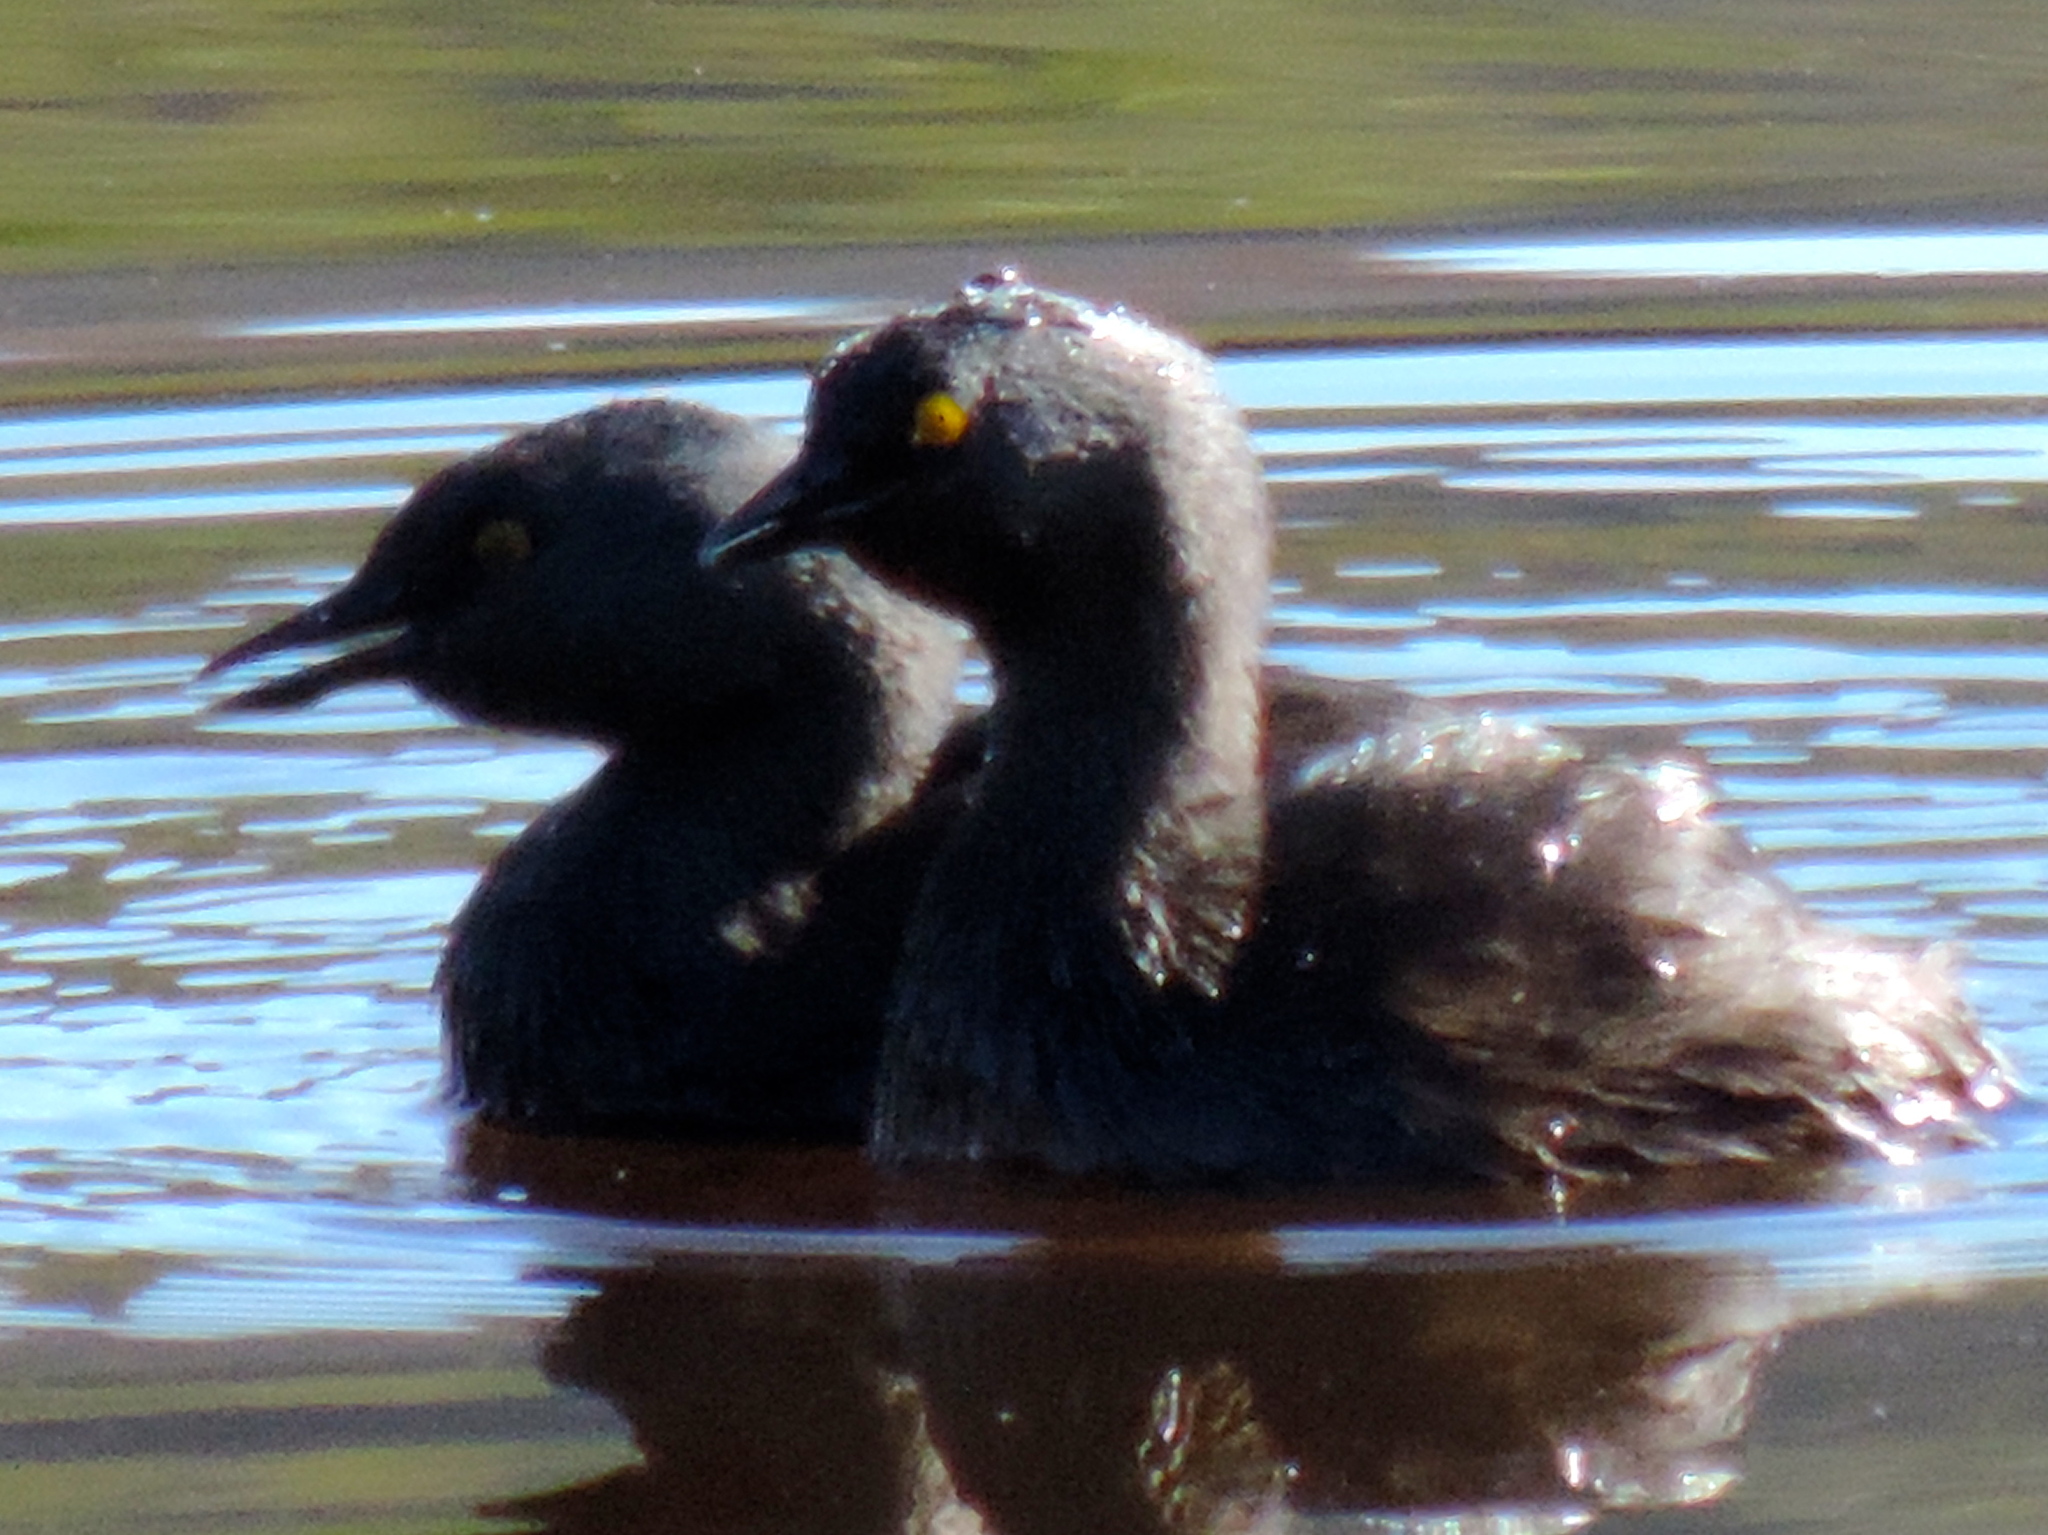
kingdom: Animalia
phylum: Chordata
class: Aves
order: Podicipediformes
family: Podicipedidae
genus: Tachybaptus
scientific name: Tachybaptus dominicus
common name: Least grebe
